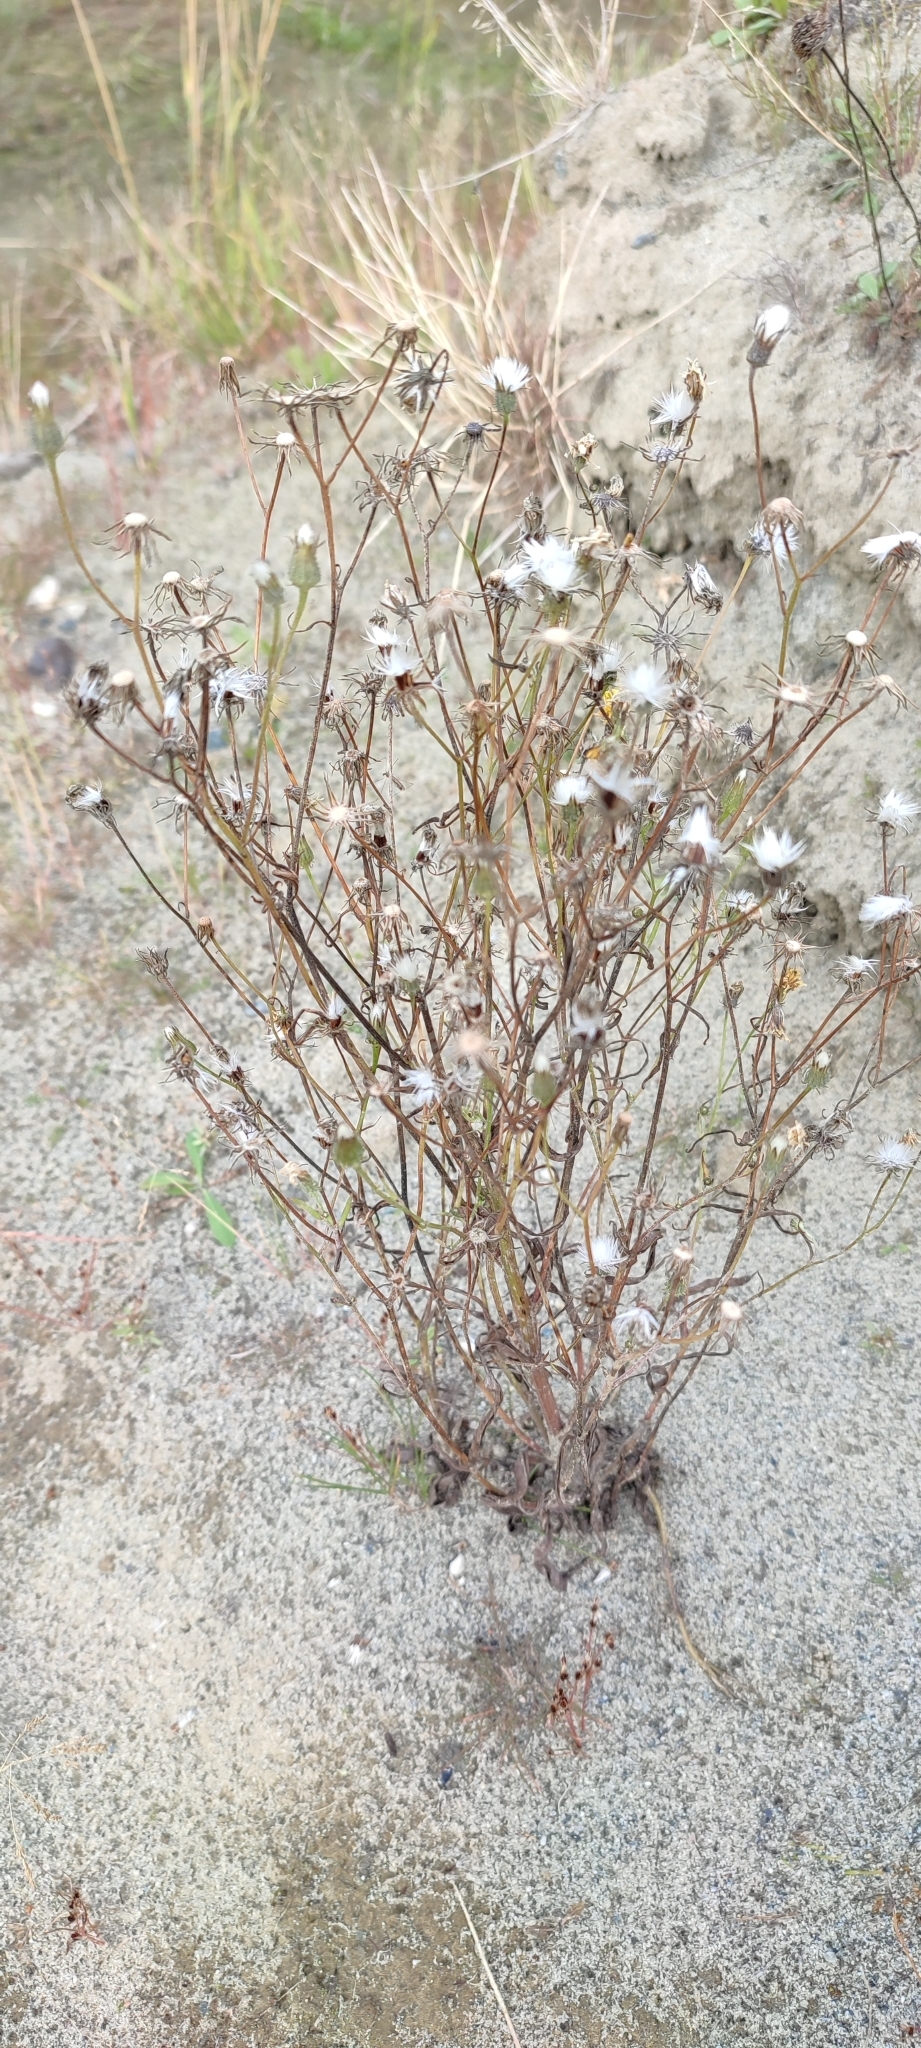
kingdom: Plantae
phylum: Tracheophyta
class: Magnoliopsida
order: Asterales
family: Asteraceae
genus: Crepis
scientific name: Crepis tectorum
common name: Narrow-leaved hawk's-beard
